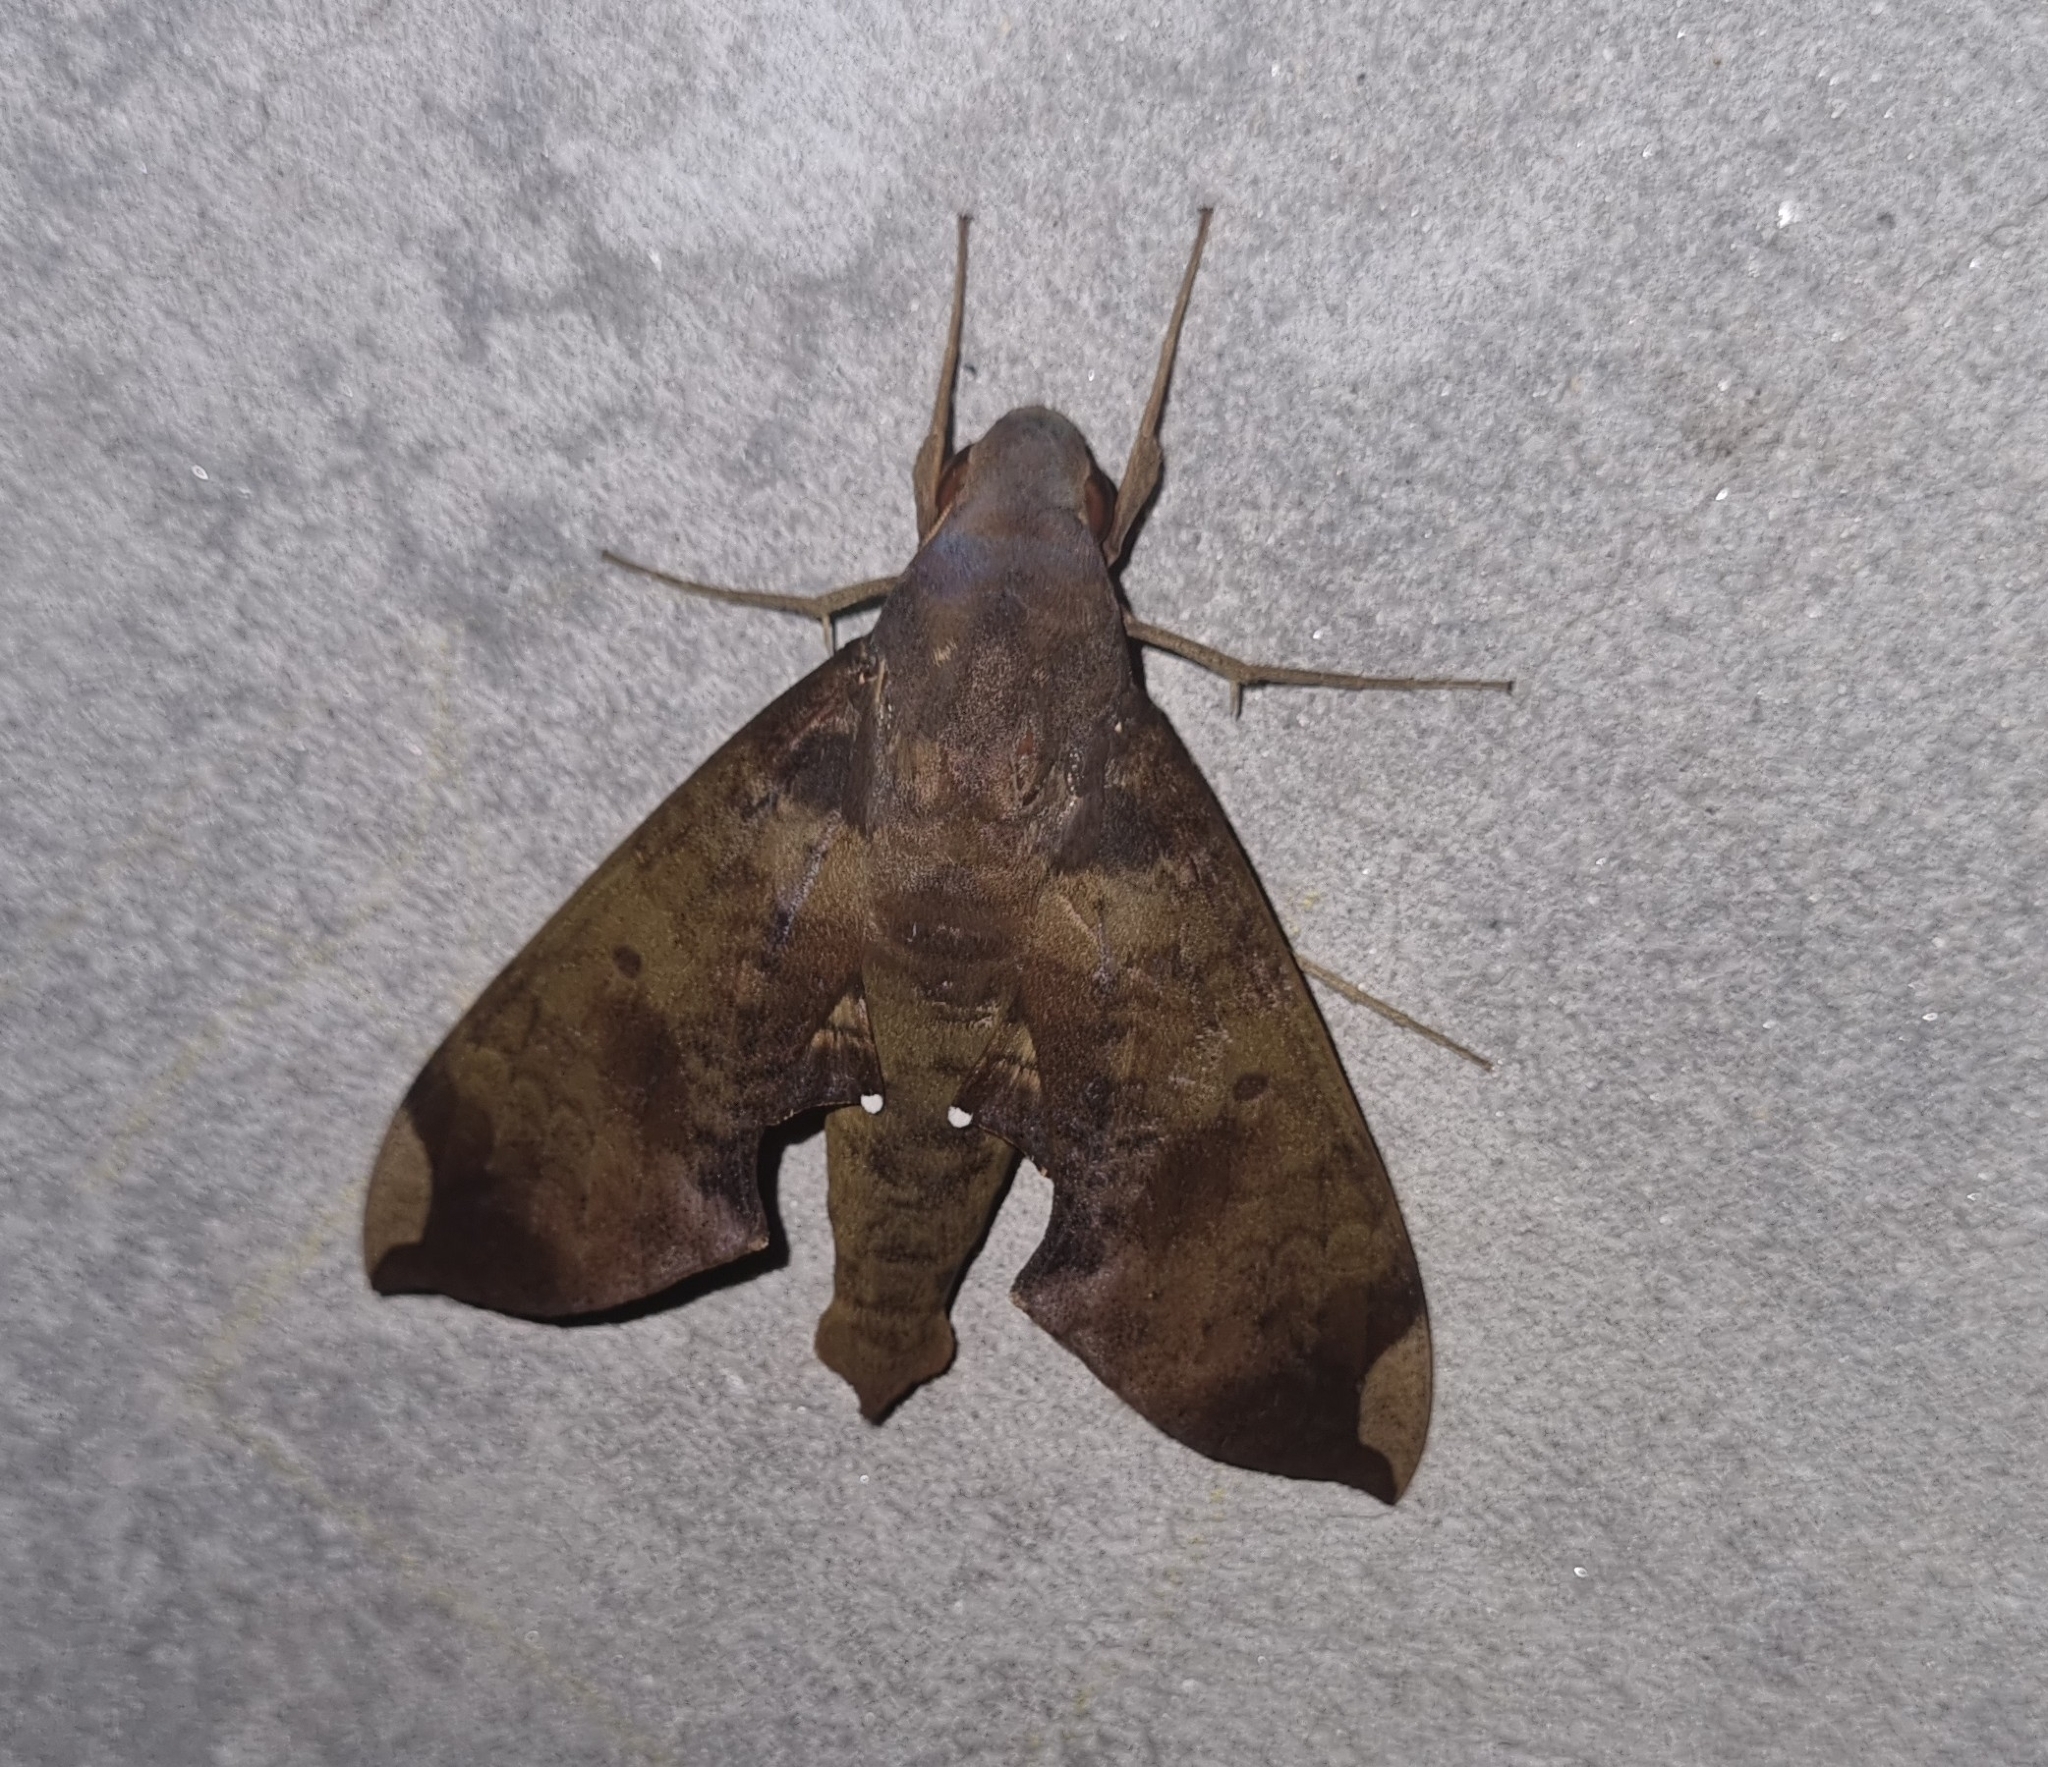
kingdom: Animalia
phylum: Arthropoda
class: Insecta
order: Lepidoptera
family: Sphingidae
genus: Pachylia
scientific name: Pachylia ficus
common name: Fig sphinx
